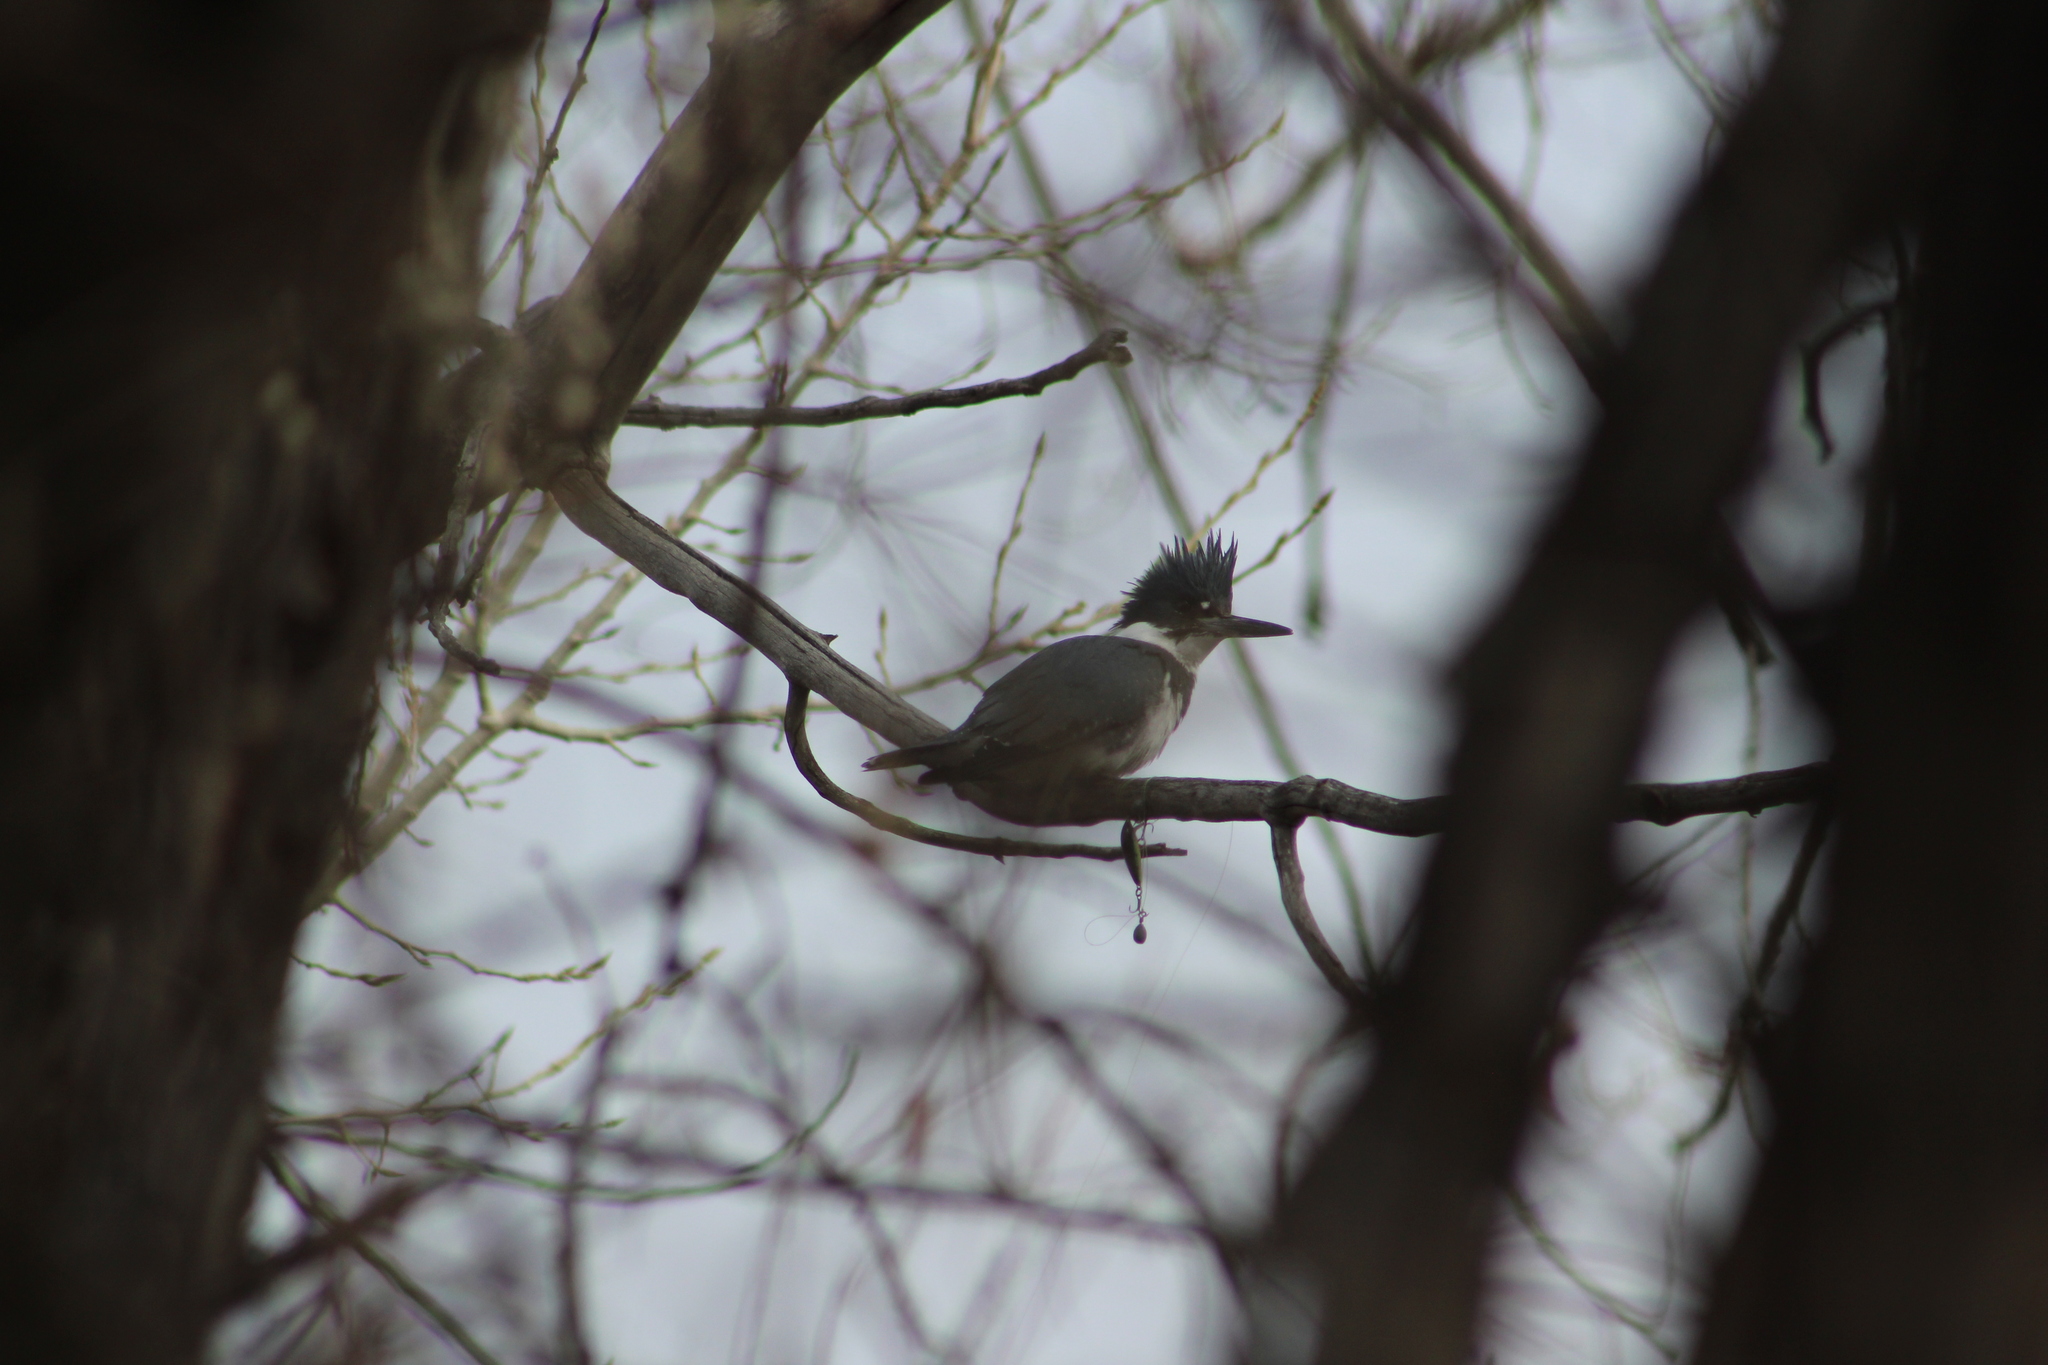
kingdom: Animalia
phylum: Chordata
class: Aves
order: Coraciiformes
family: Alcedinidae
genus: Megaceryle
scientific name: Megaceryle alcyon
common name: Belted kingfisher
